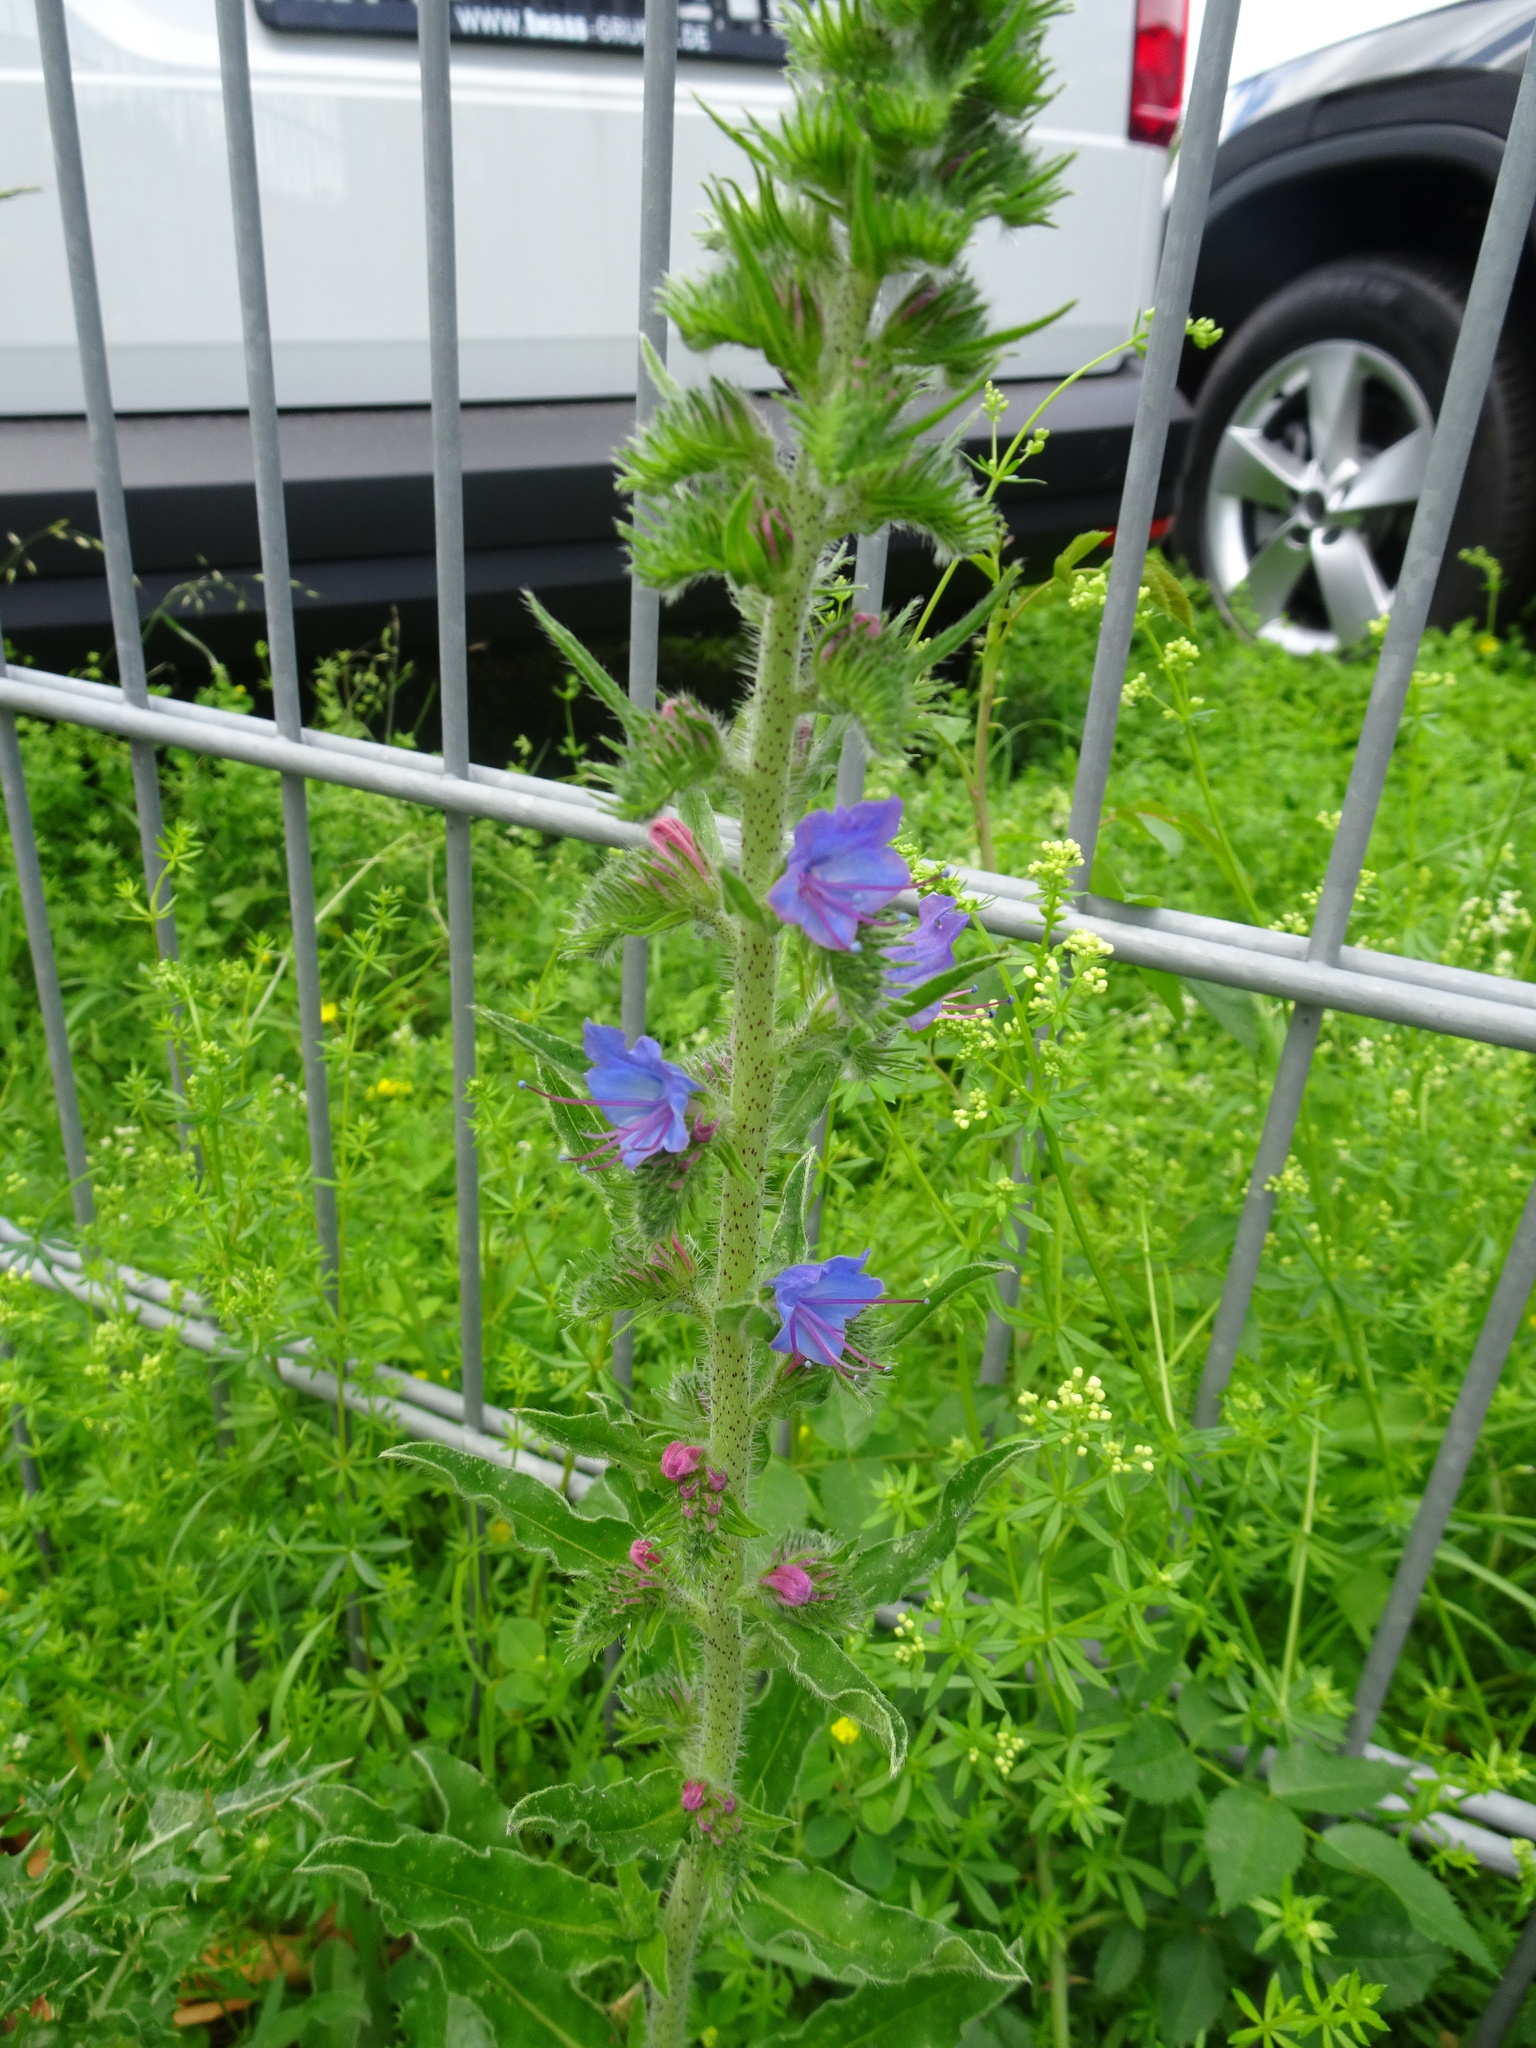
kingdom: Plantae
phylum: Tracheophyta
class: Magnoliopsida
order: Boraginales
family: Boraginaceae
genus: Echium
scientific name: Echium vulgare
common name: Common viper's bugloss
